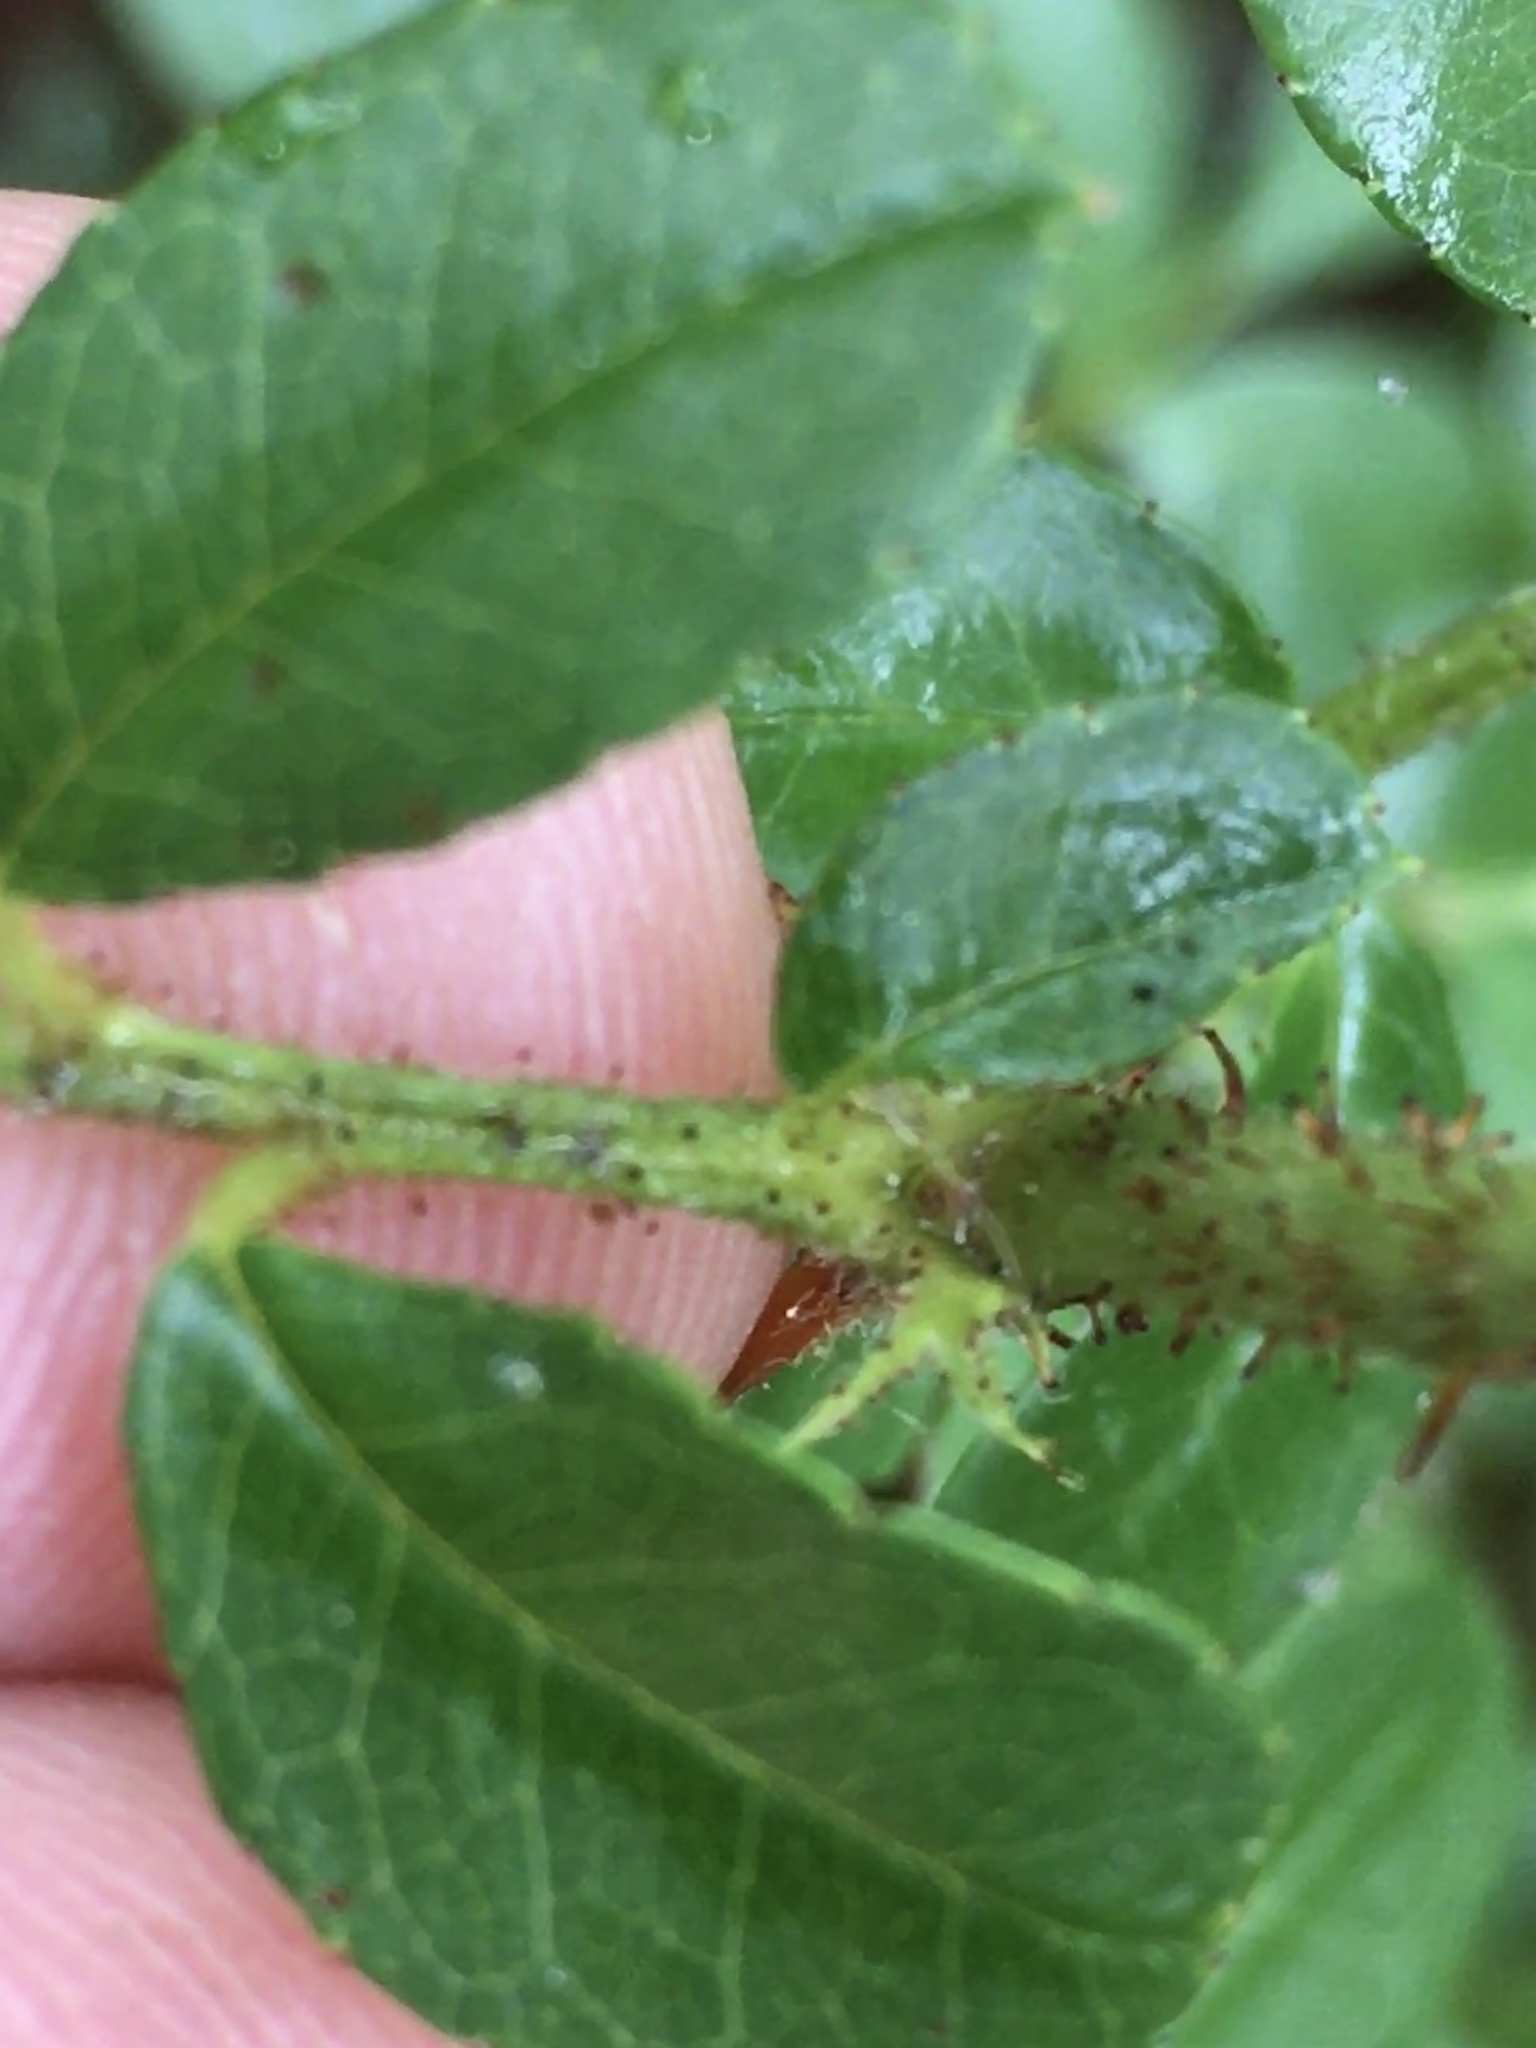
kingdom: Plantae
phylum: Tracheophyta
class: Magnoliopsida
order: Rosales
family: Rosaceae
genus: Rosa
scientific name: Rosa bracteata
